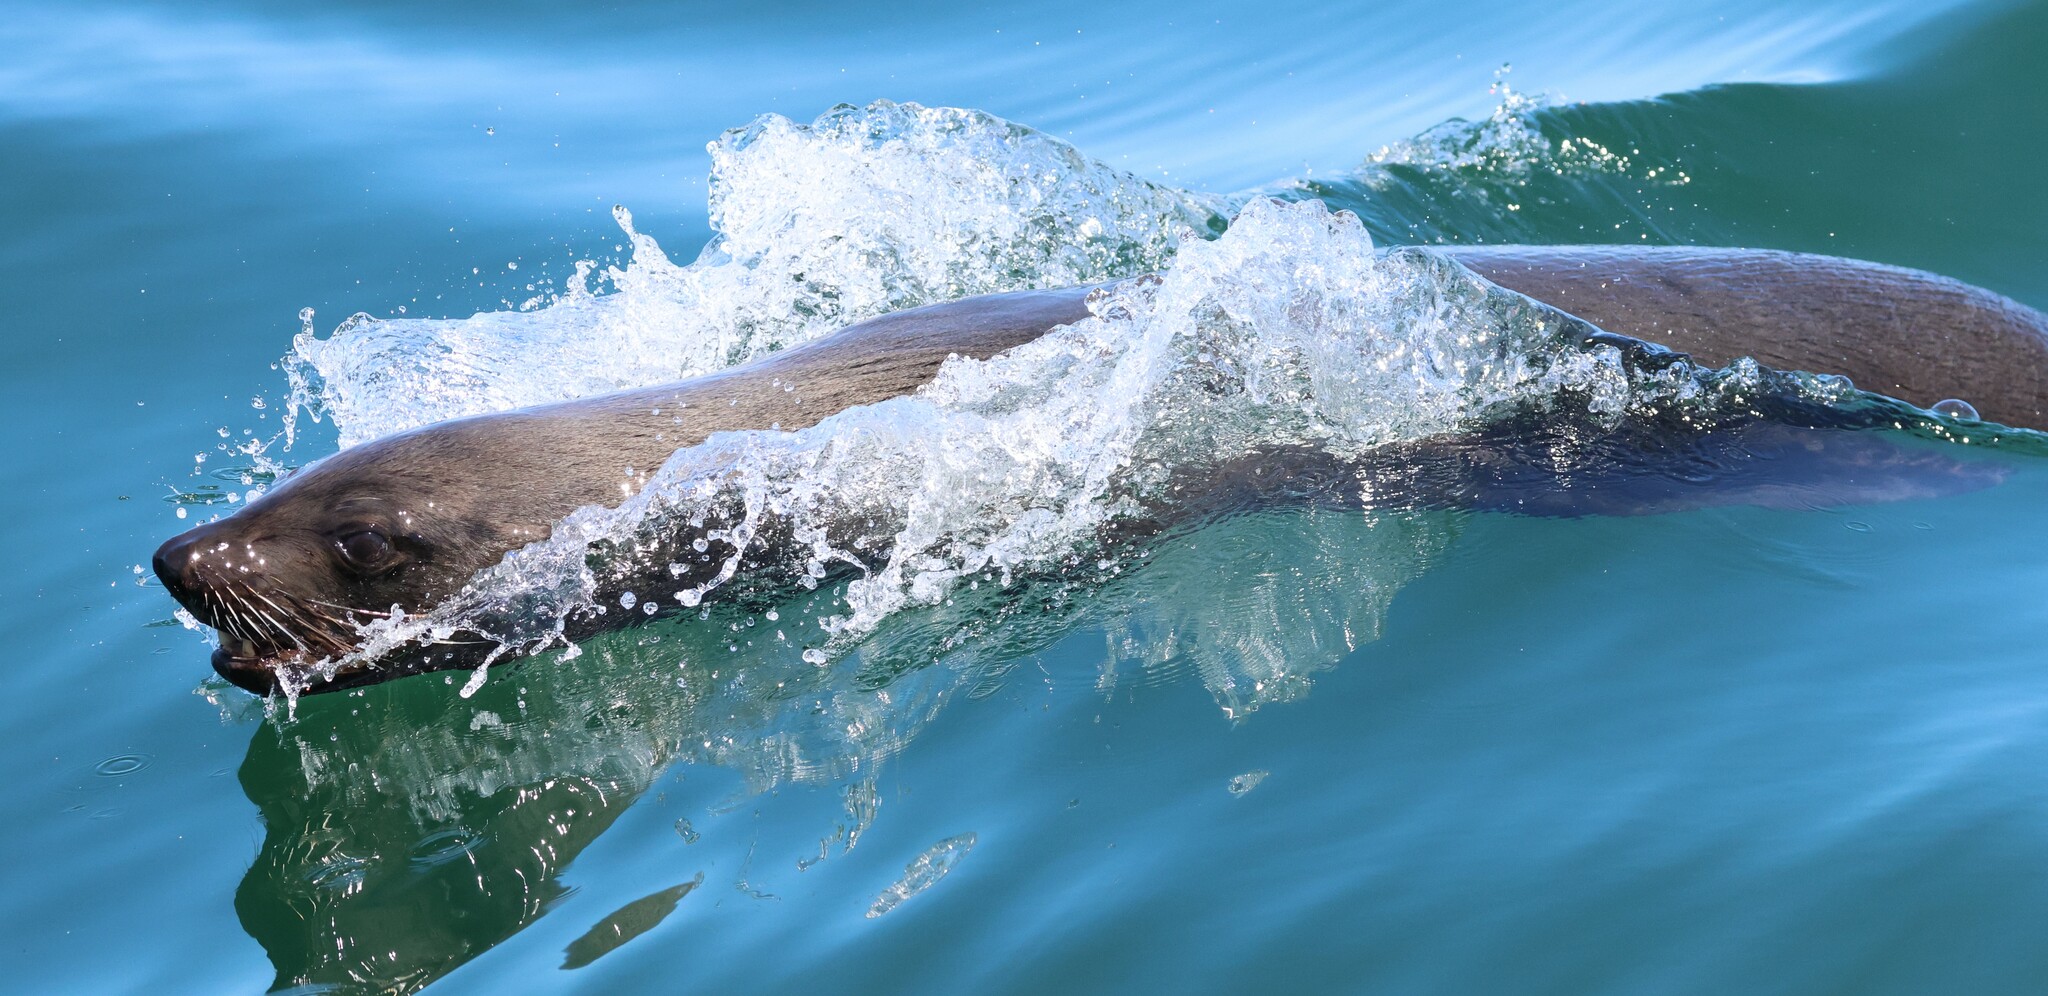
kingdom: Animalia
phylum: Chordata
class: Mammalia
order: Carnivora
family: Otariidae
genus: Arctocephalus
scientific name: Arctocephalus pusillus
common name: Brown fur seal
